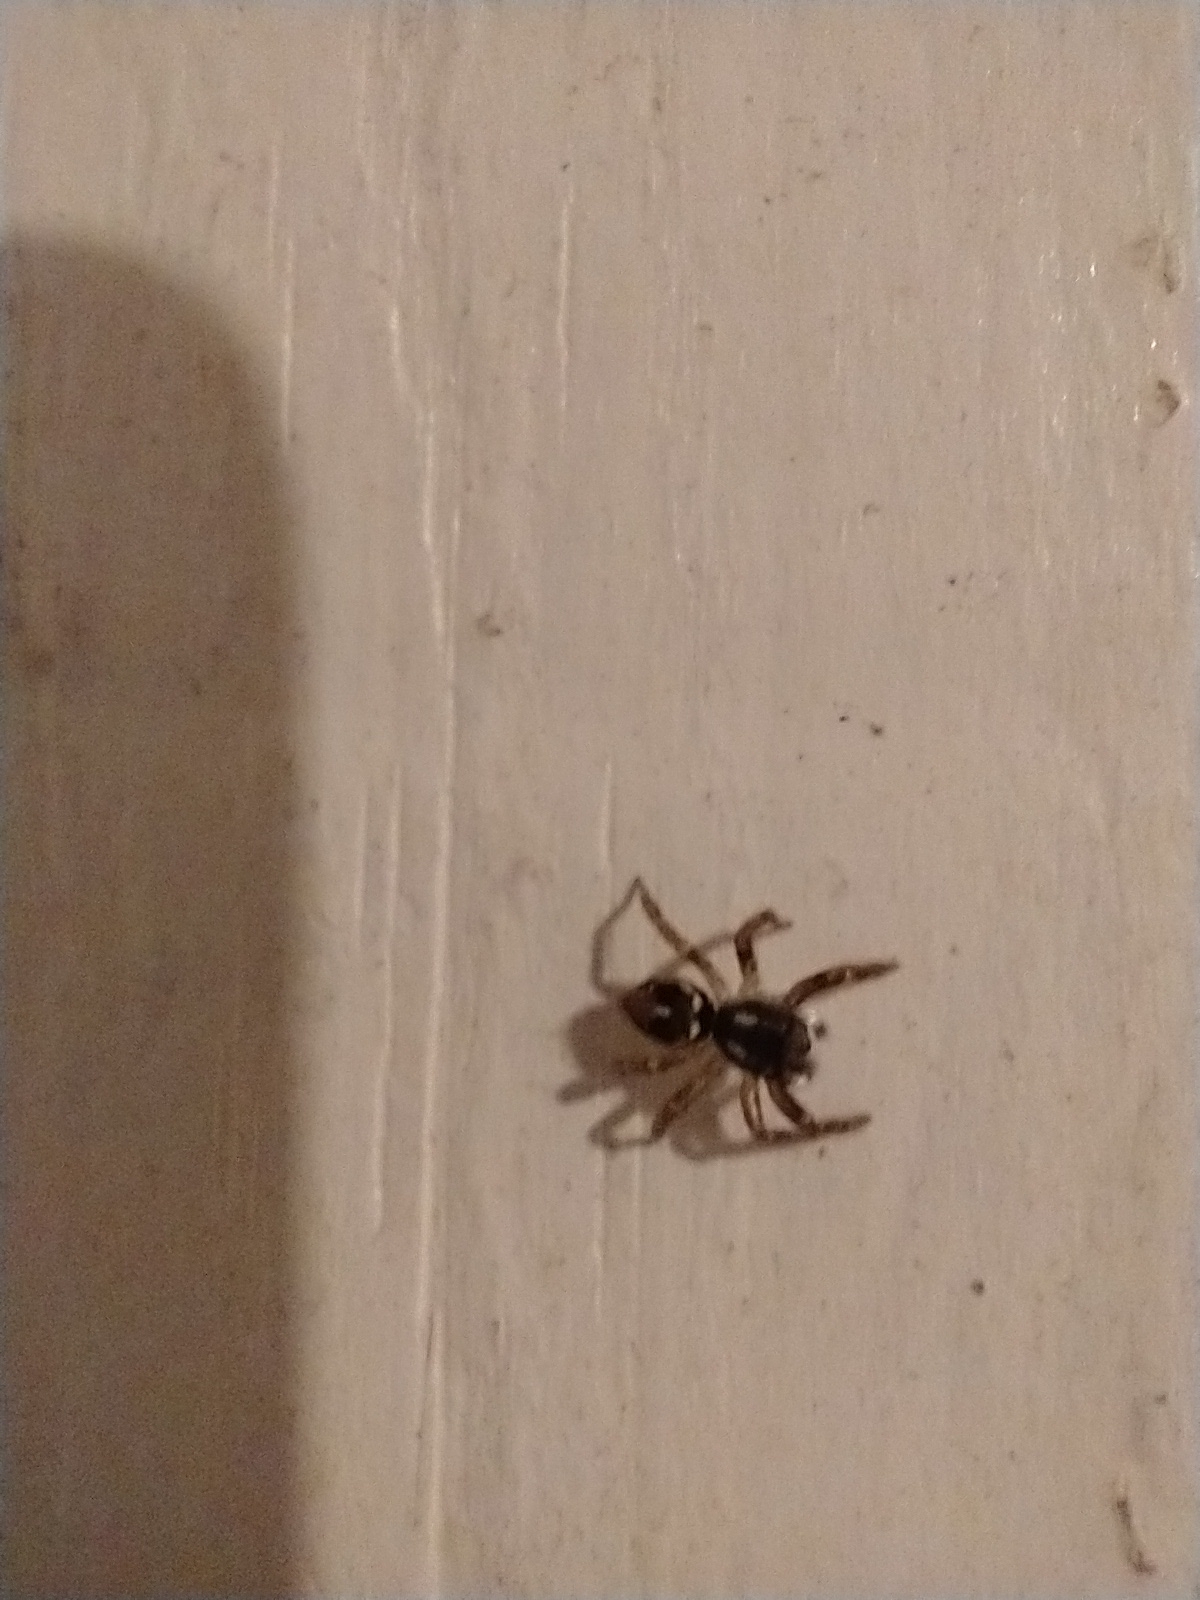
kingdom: Animalia
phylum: Arthropoda
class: Arachnida
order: Araneae
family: Salticidae
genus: Anasaitis
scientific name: Anasaitis canosa
